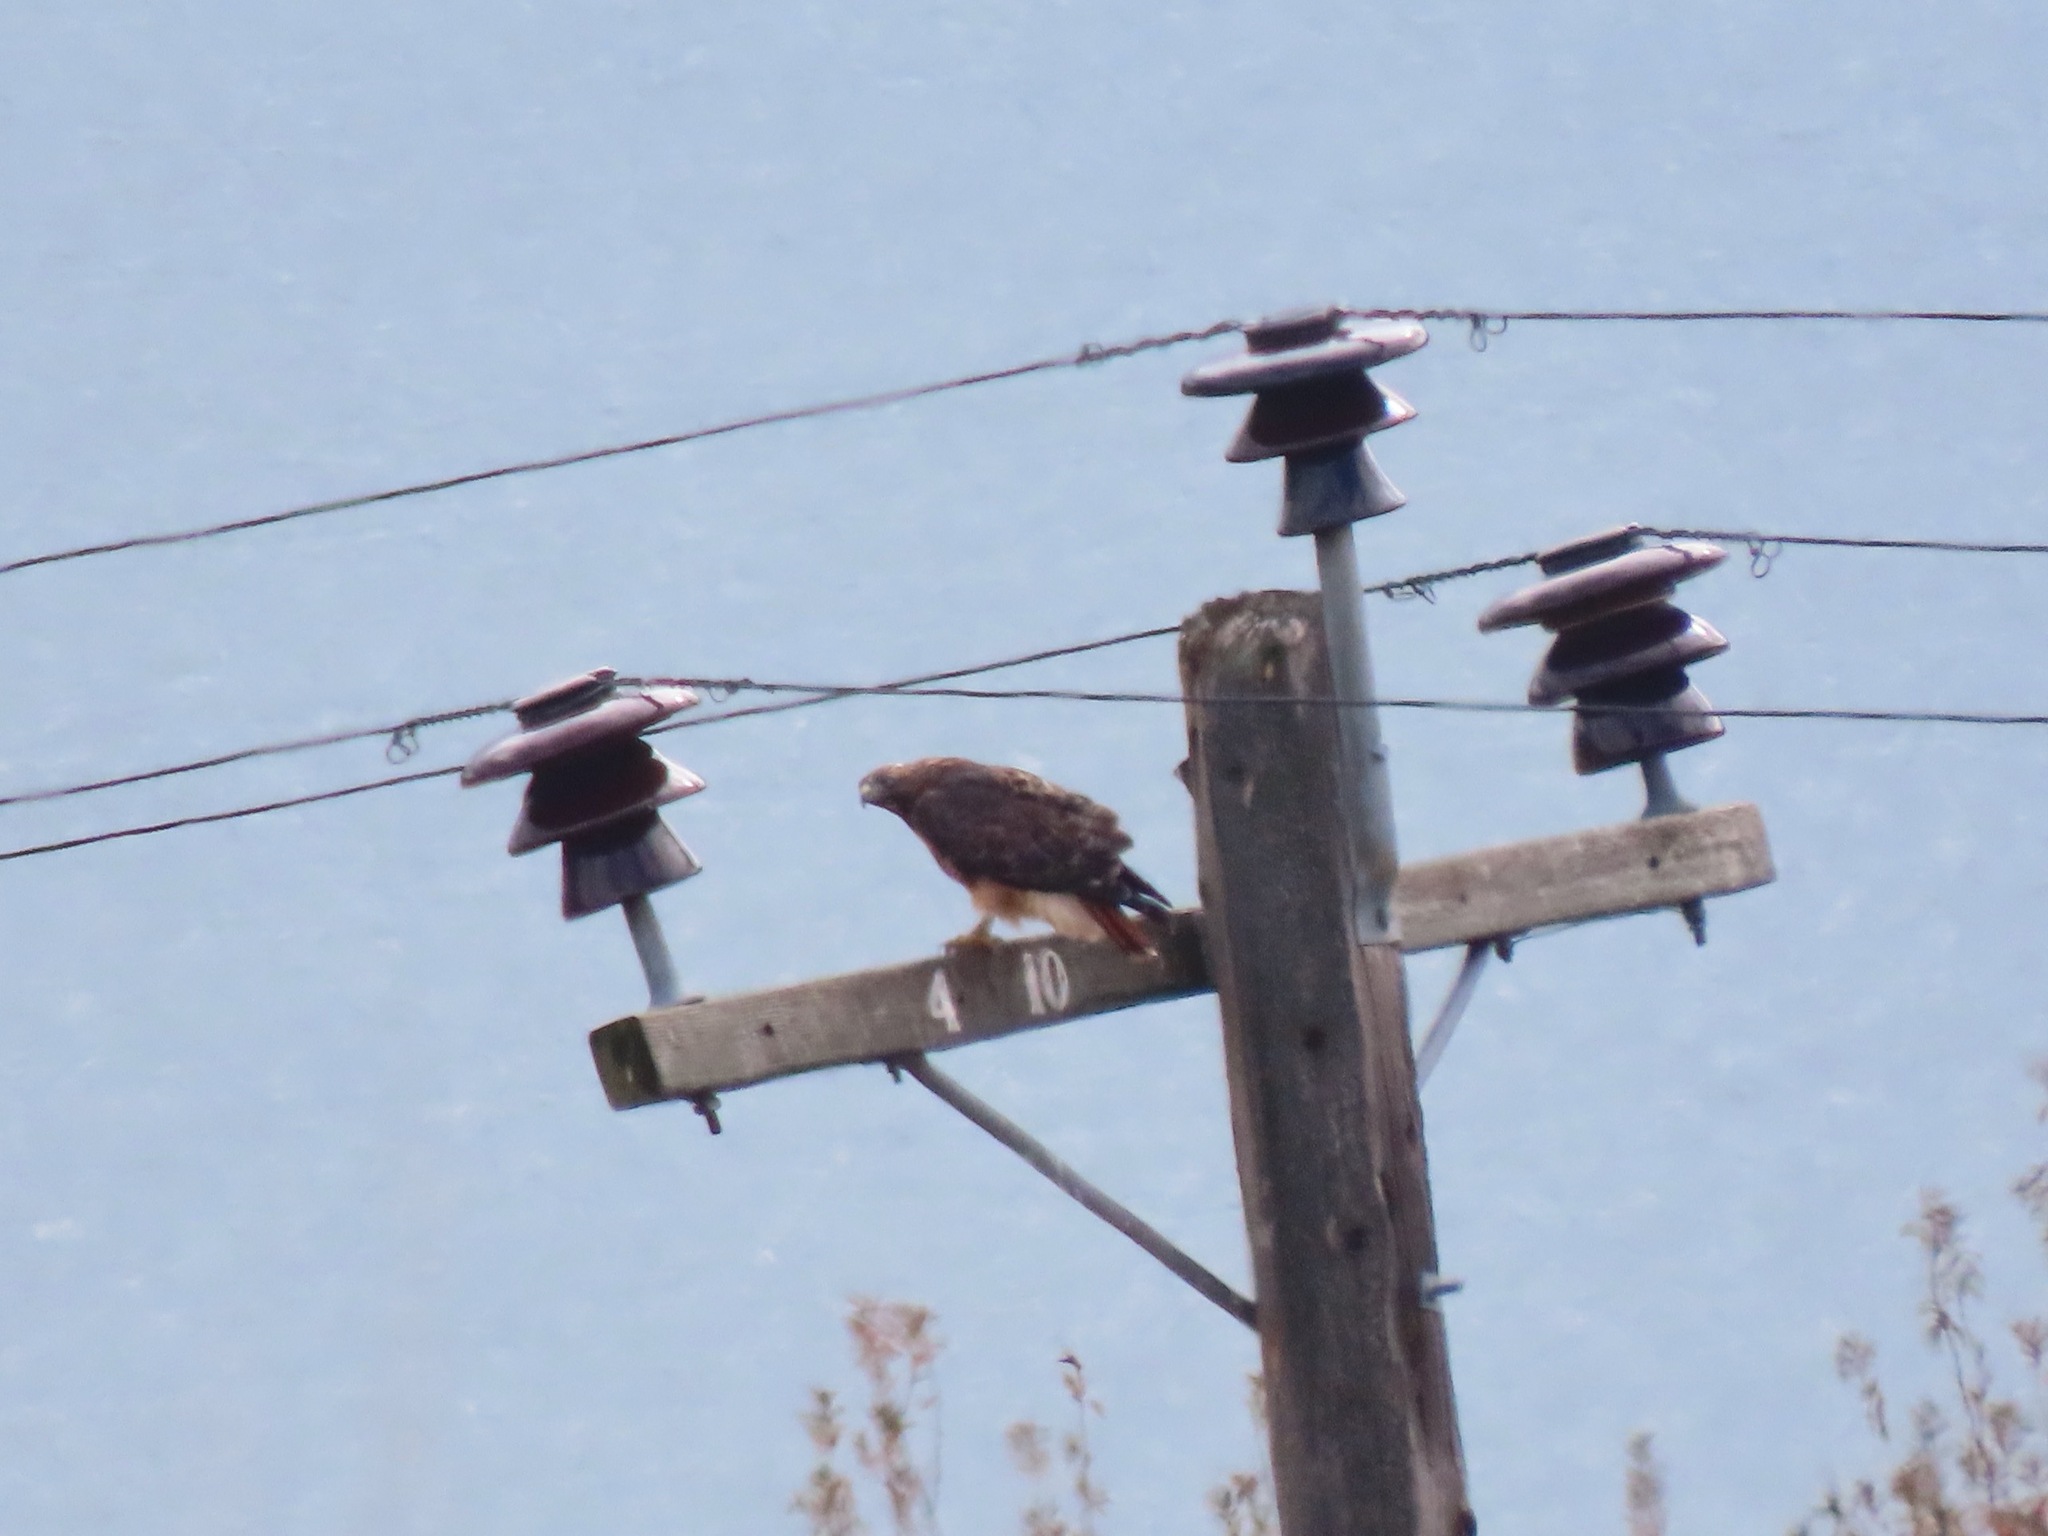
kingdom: Animalia
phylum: Chordata
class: Aves
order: Accipitriformes
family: Accipitridae
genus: Buteo
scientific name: Buteo jamaicensis
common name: Red-tailed hawk
